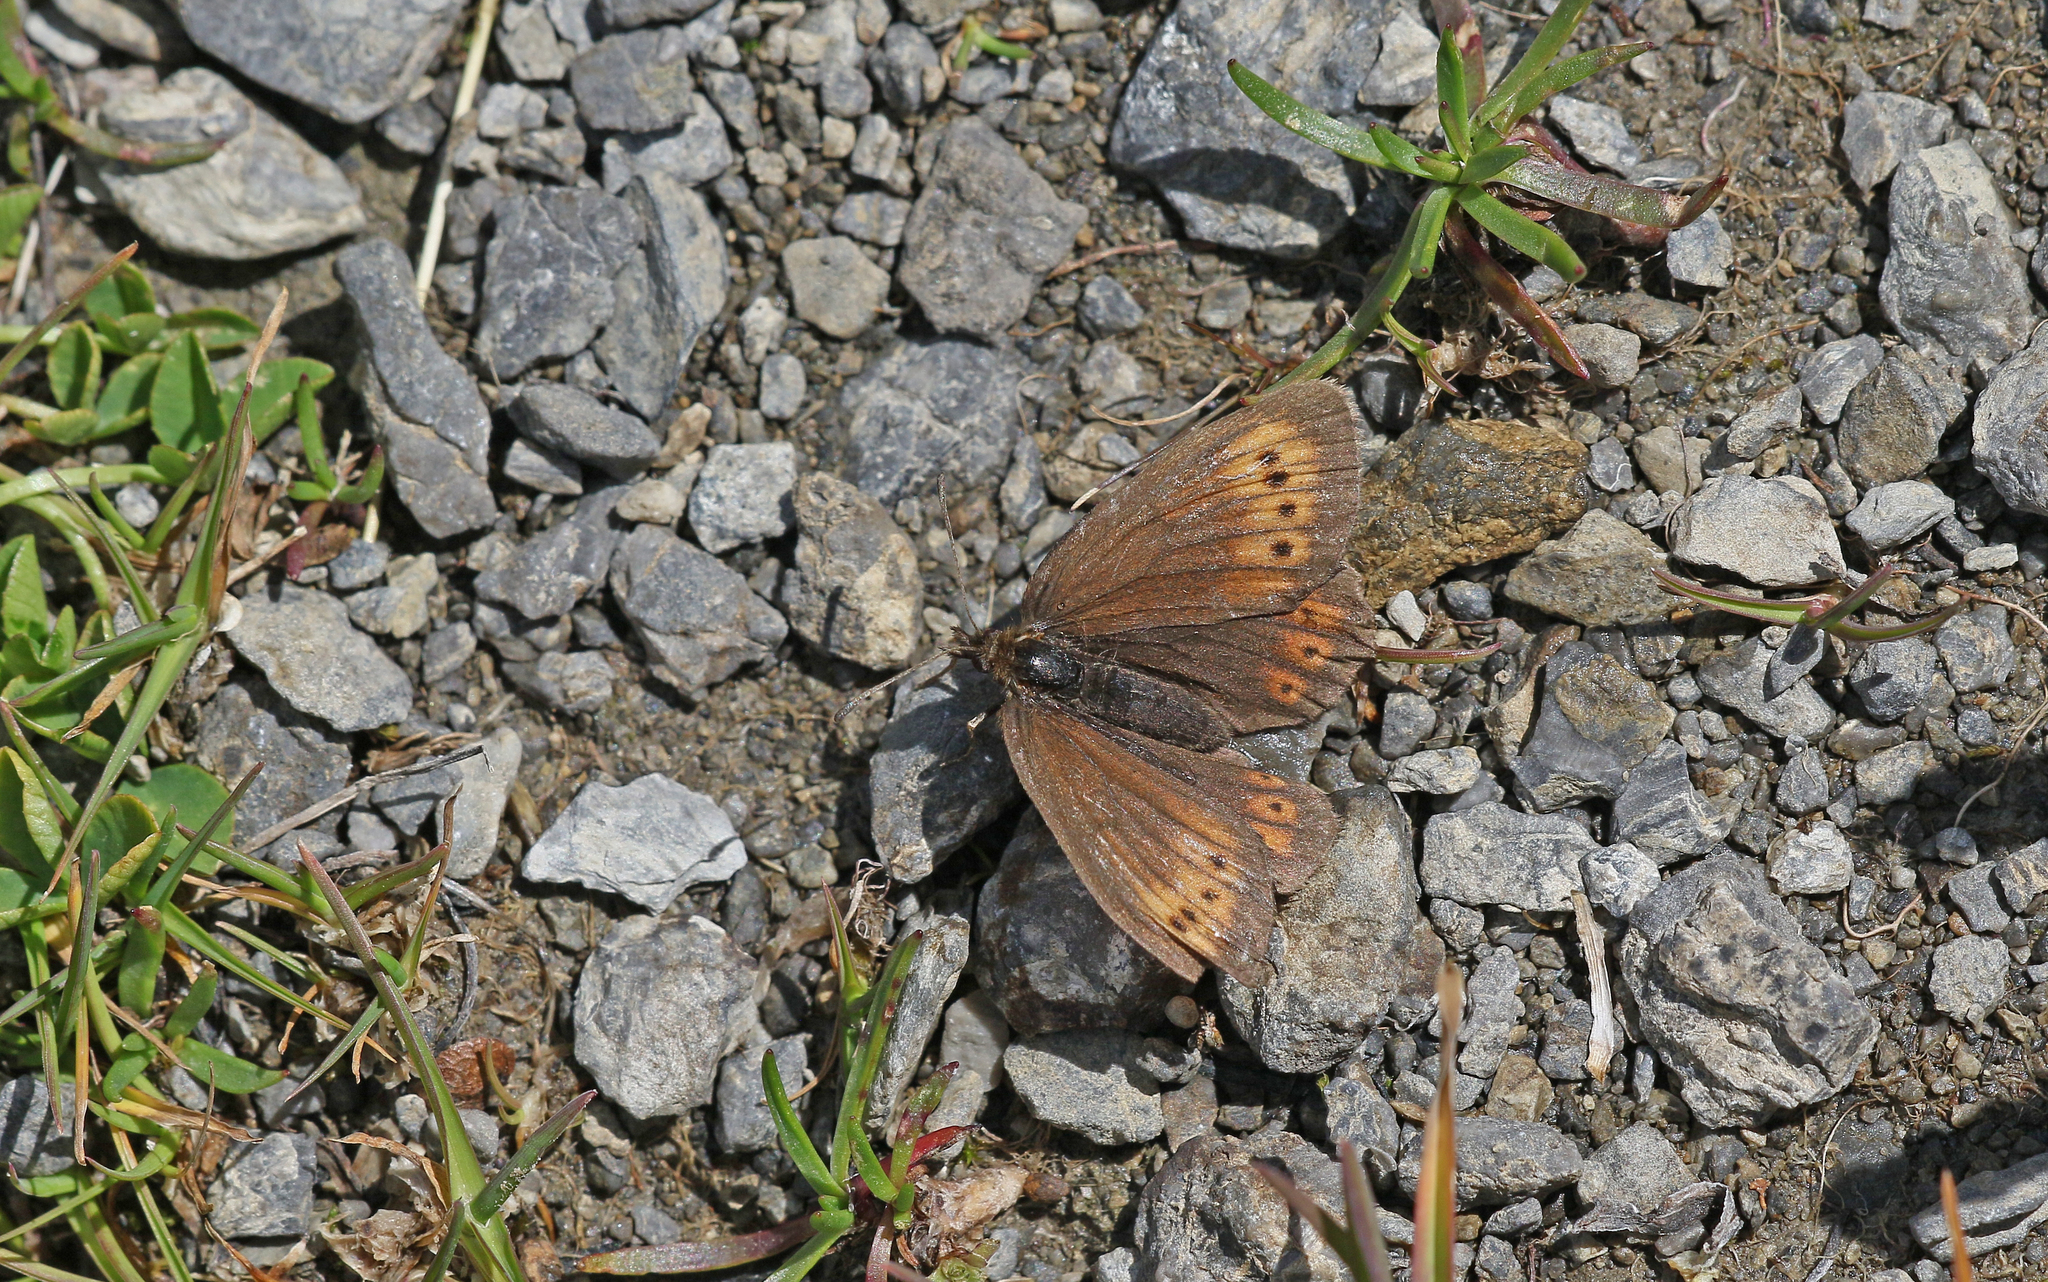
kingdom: Animalia
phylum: Arthropoda
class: Insecta
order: Lepidoptera
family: Nymphalidae
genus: Erebia
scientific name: Erebia epiphron
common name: Mountain ringlet
